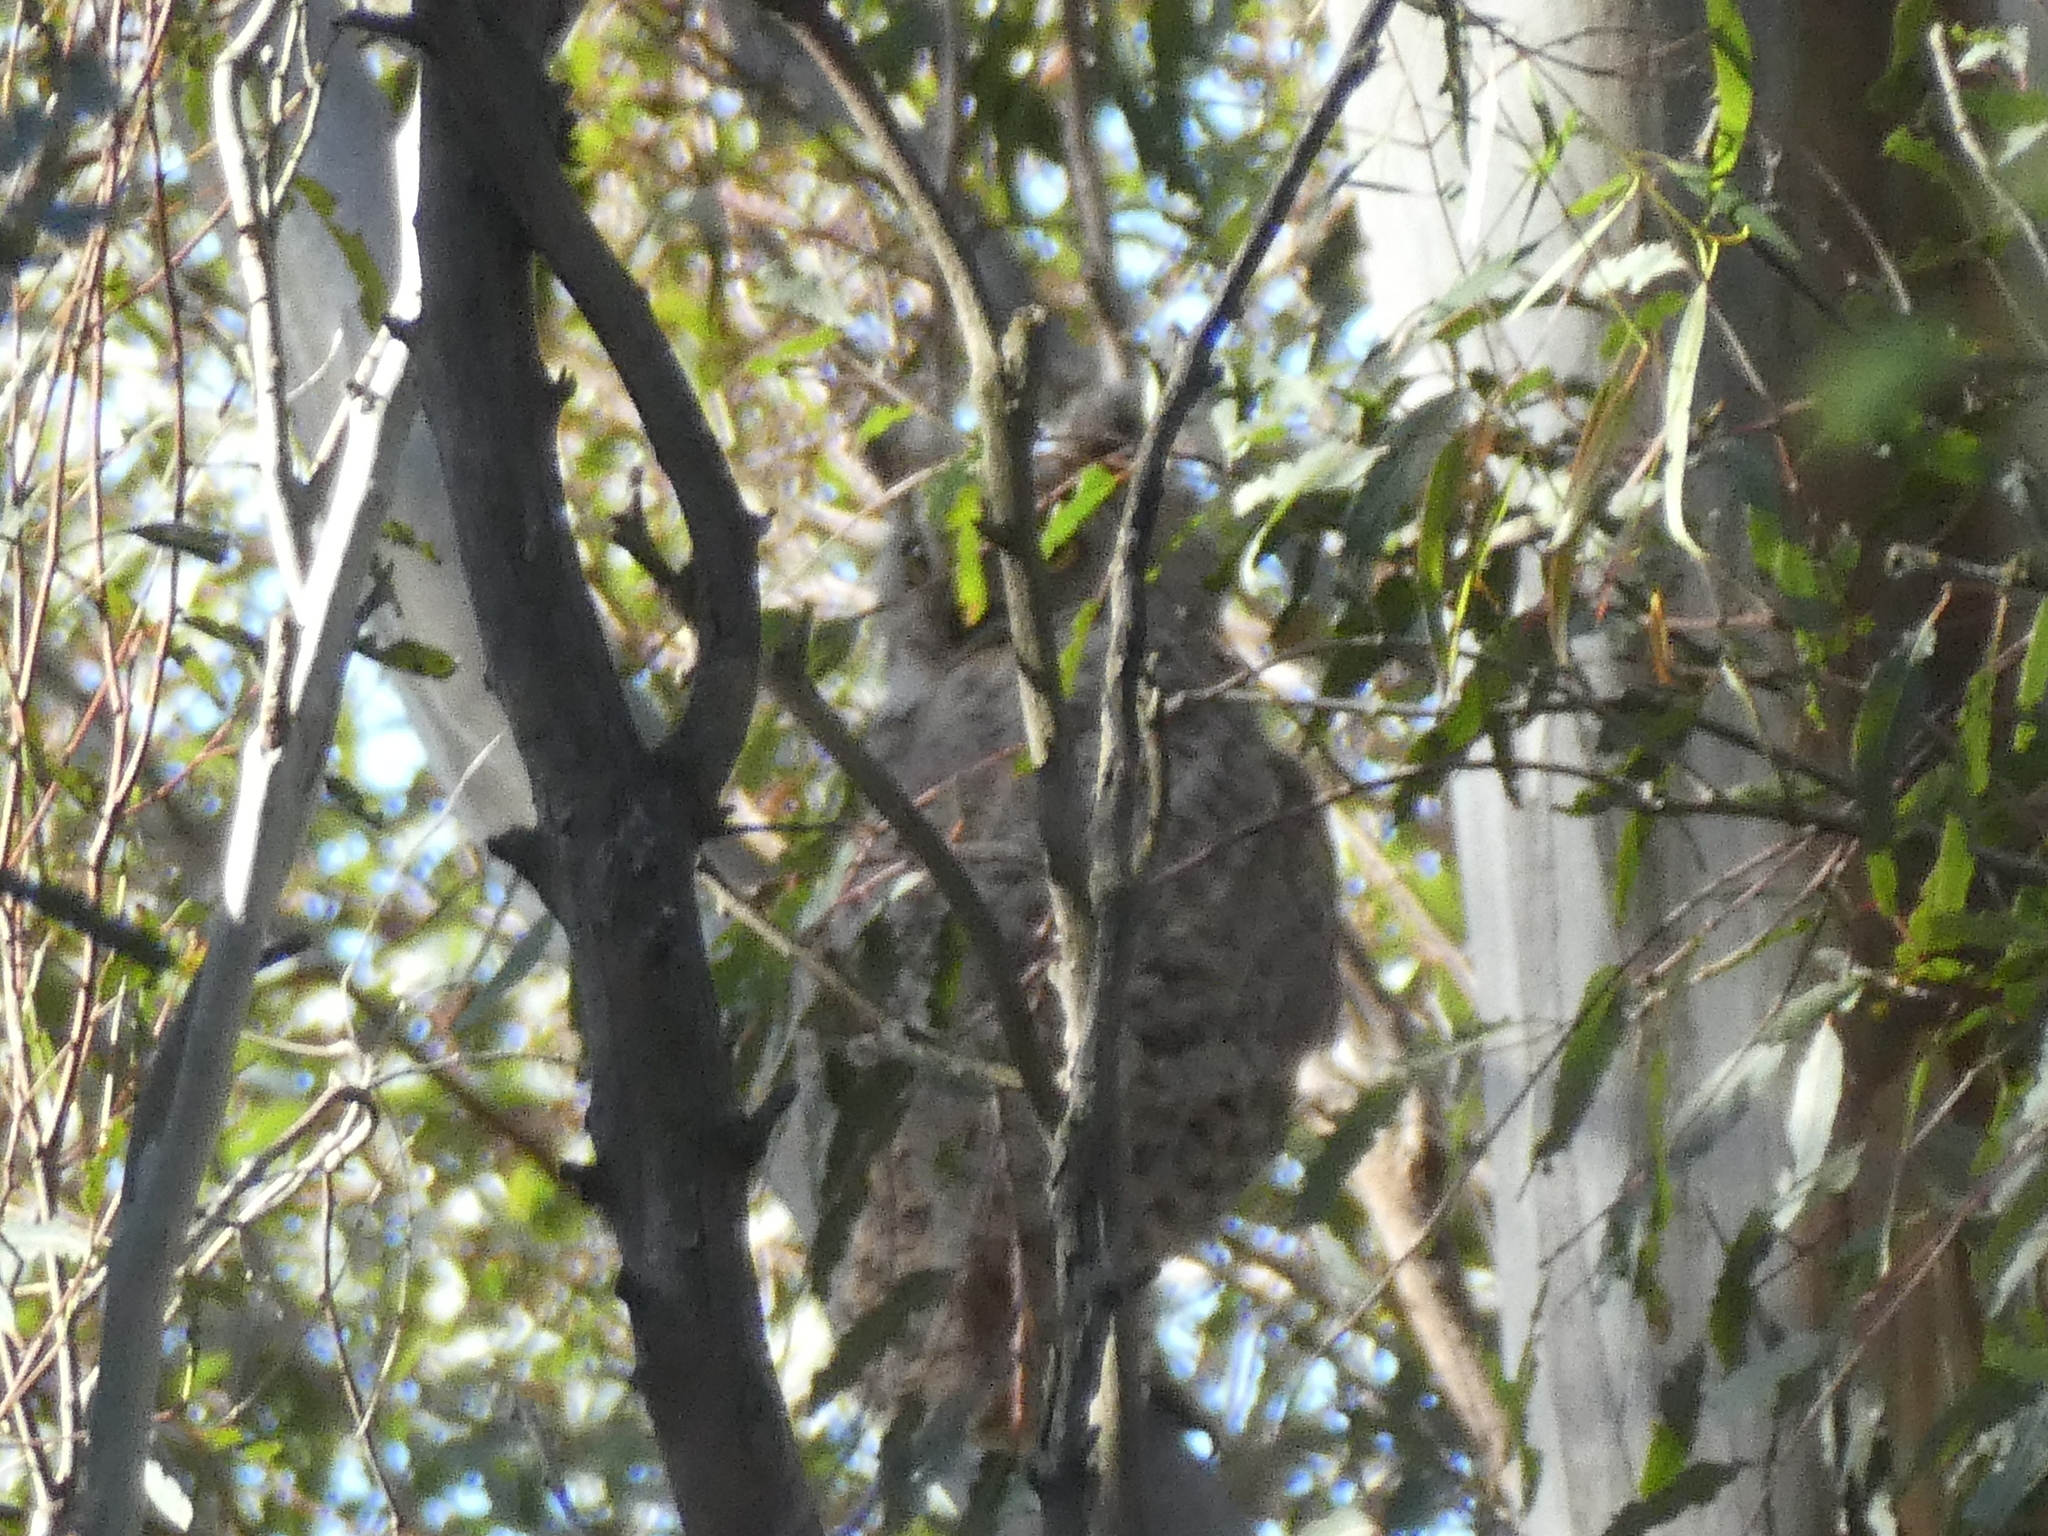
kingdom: Animalia
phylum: Chordata
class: Aves
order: Strigiformes
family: Strigidae
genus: Bubo
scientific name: Bubo virginianus
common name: Great horned owl
